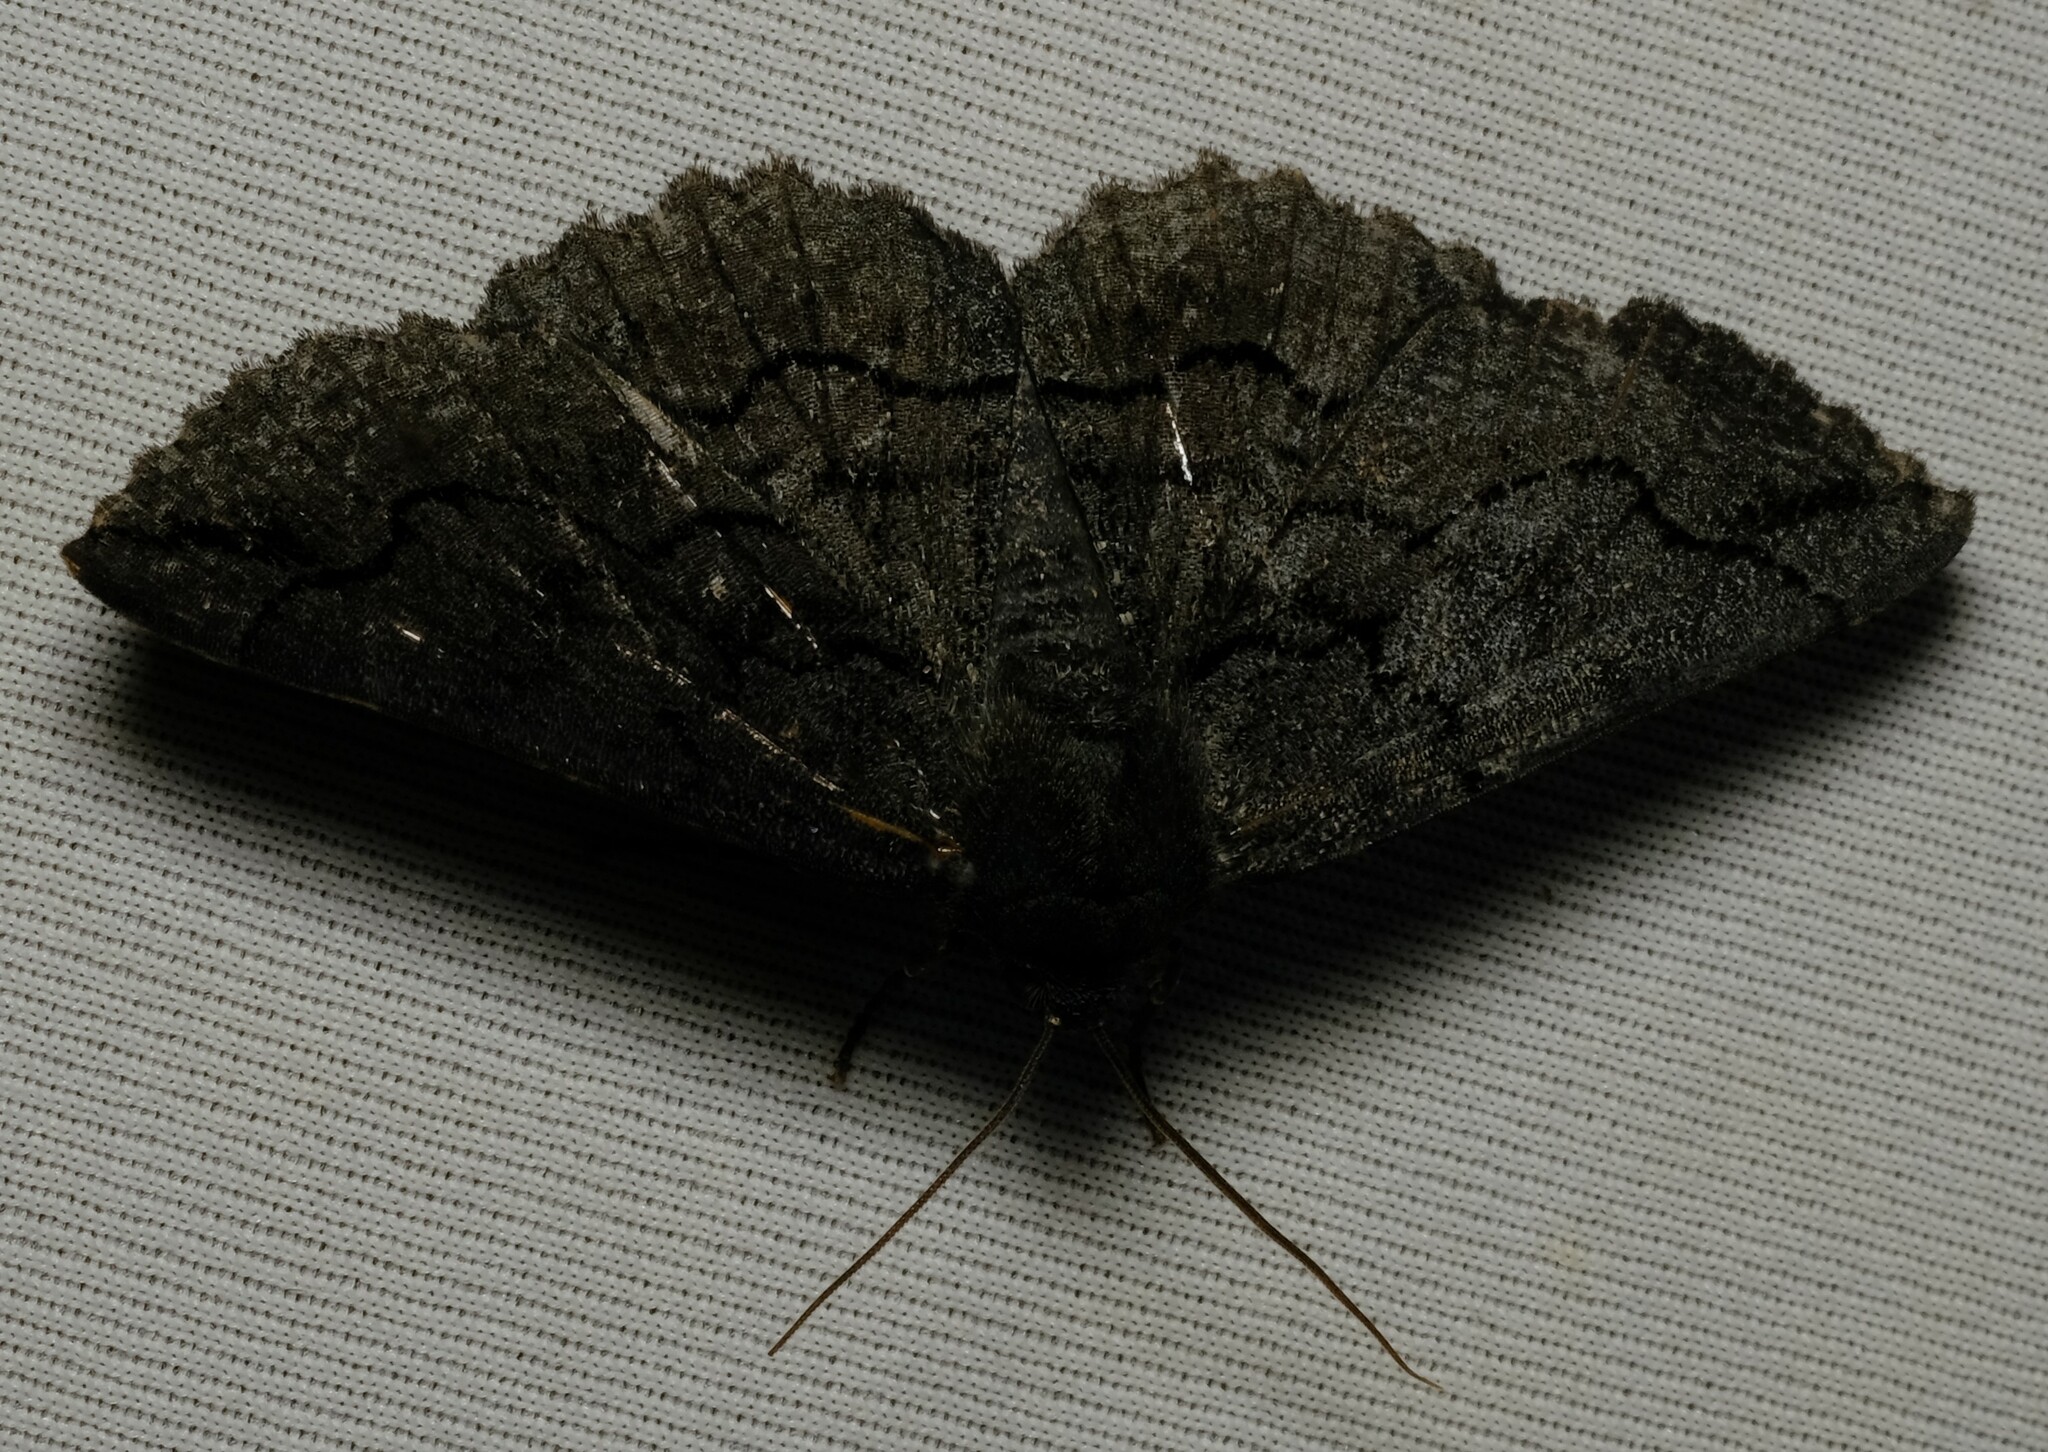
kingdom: Animalia
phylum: Arthropoda
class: Insecta
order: Lepidoptera
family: Geometridae
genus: Melanodes
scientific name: Melanodes anthracitaria
